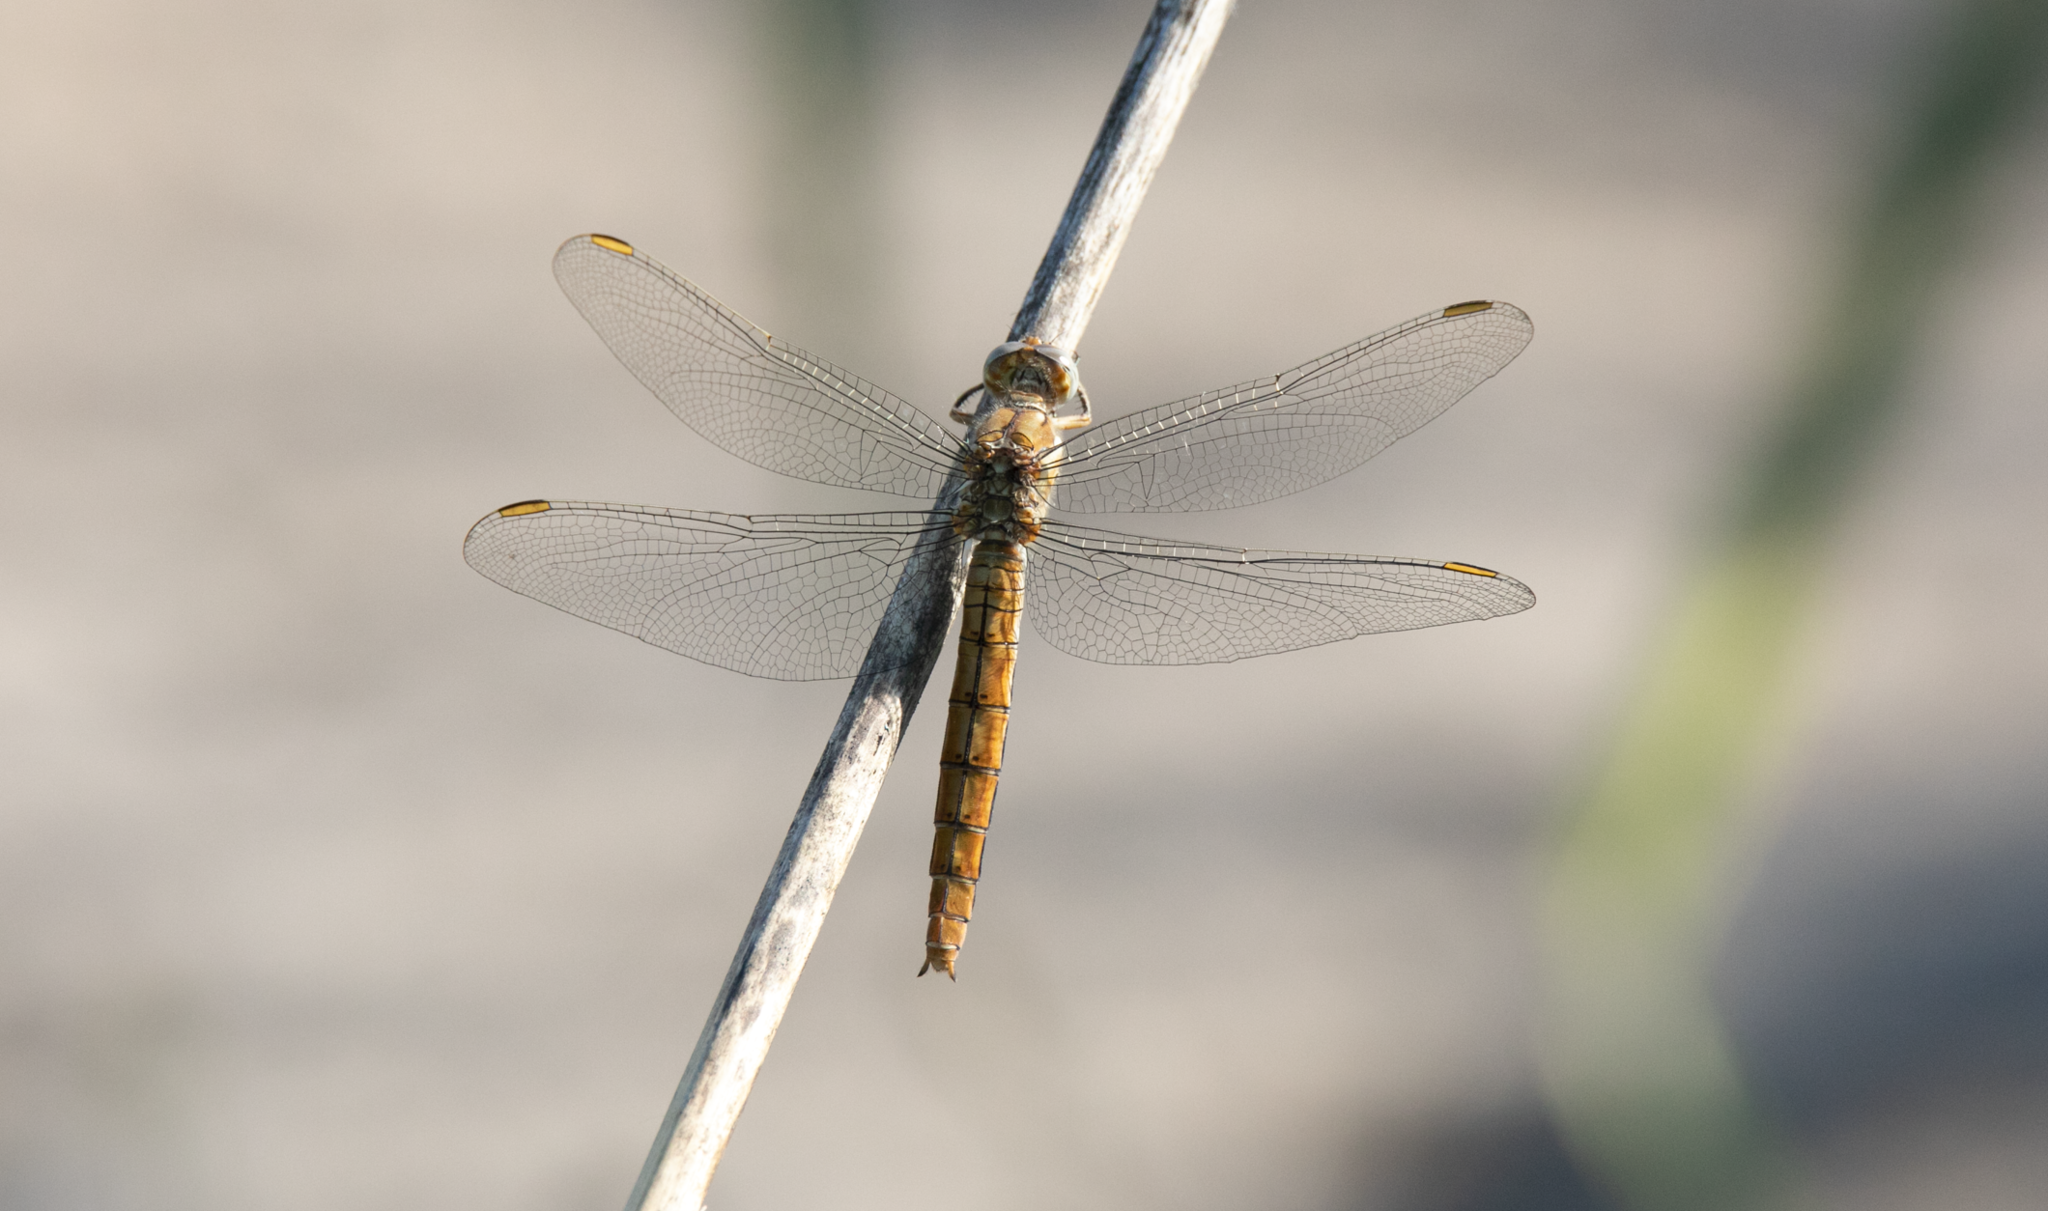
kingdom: Animalia
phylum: Arthropoda
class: Insecta
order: Odonata
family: Libellulidae
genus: Orthetrum
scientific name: Orthetrum brunneum
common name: Southern skimmer
